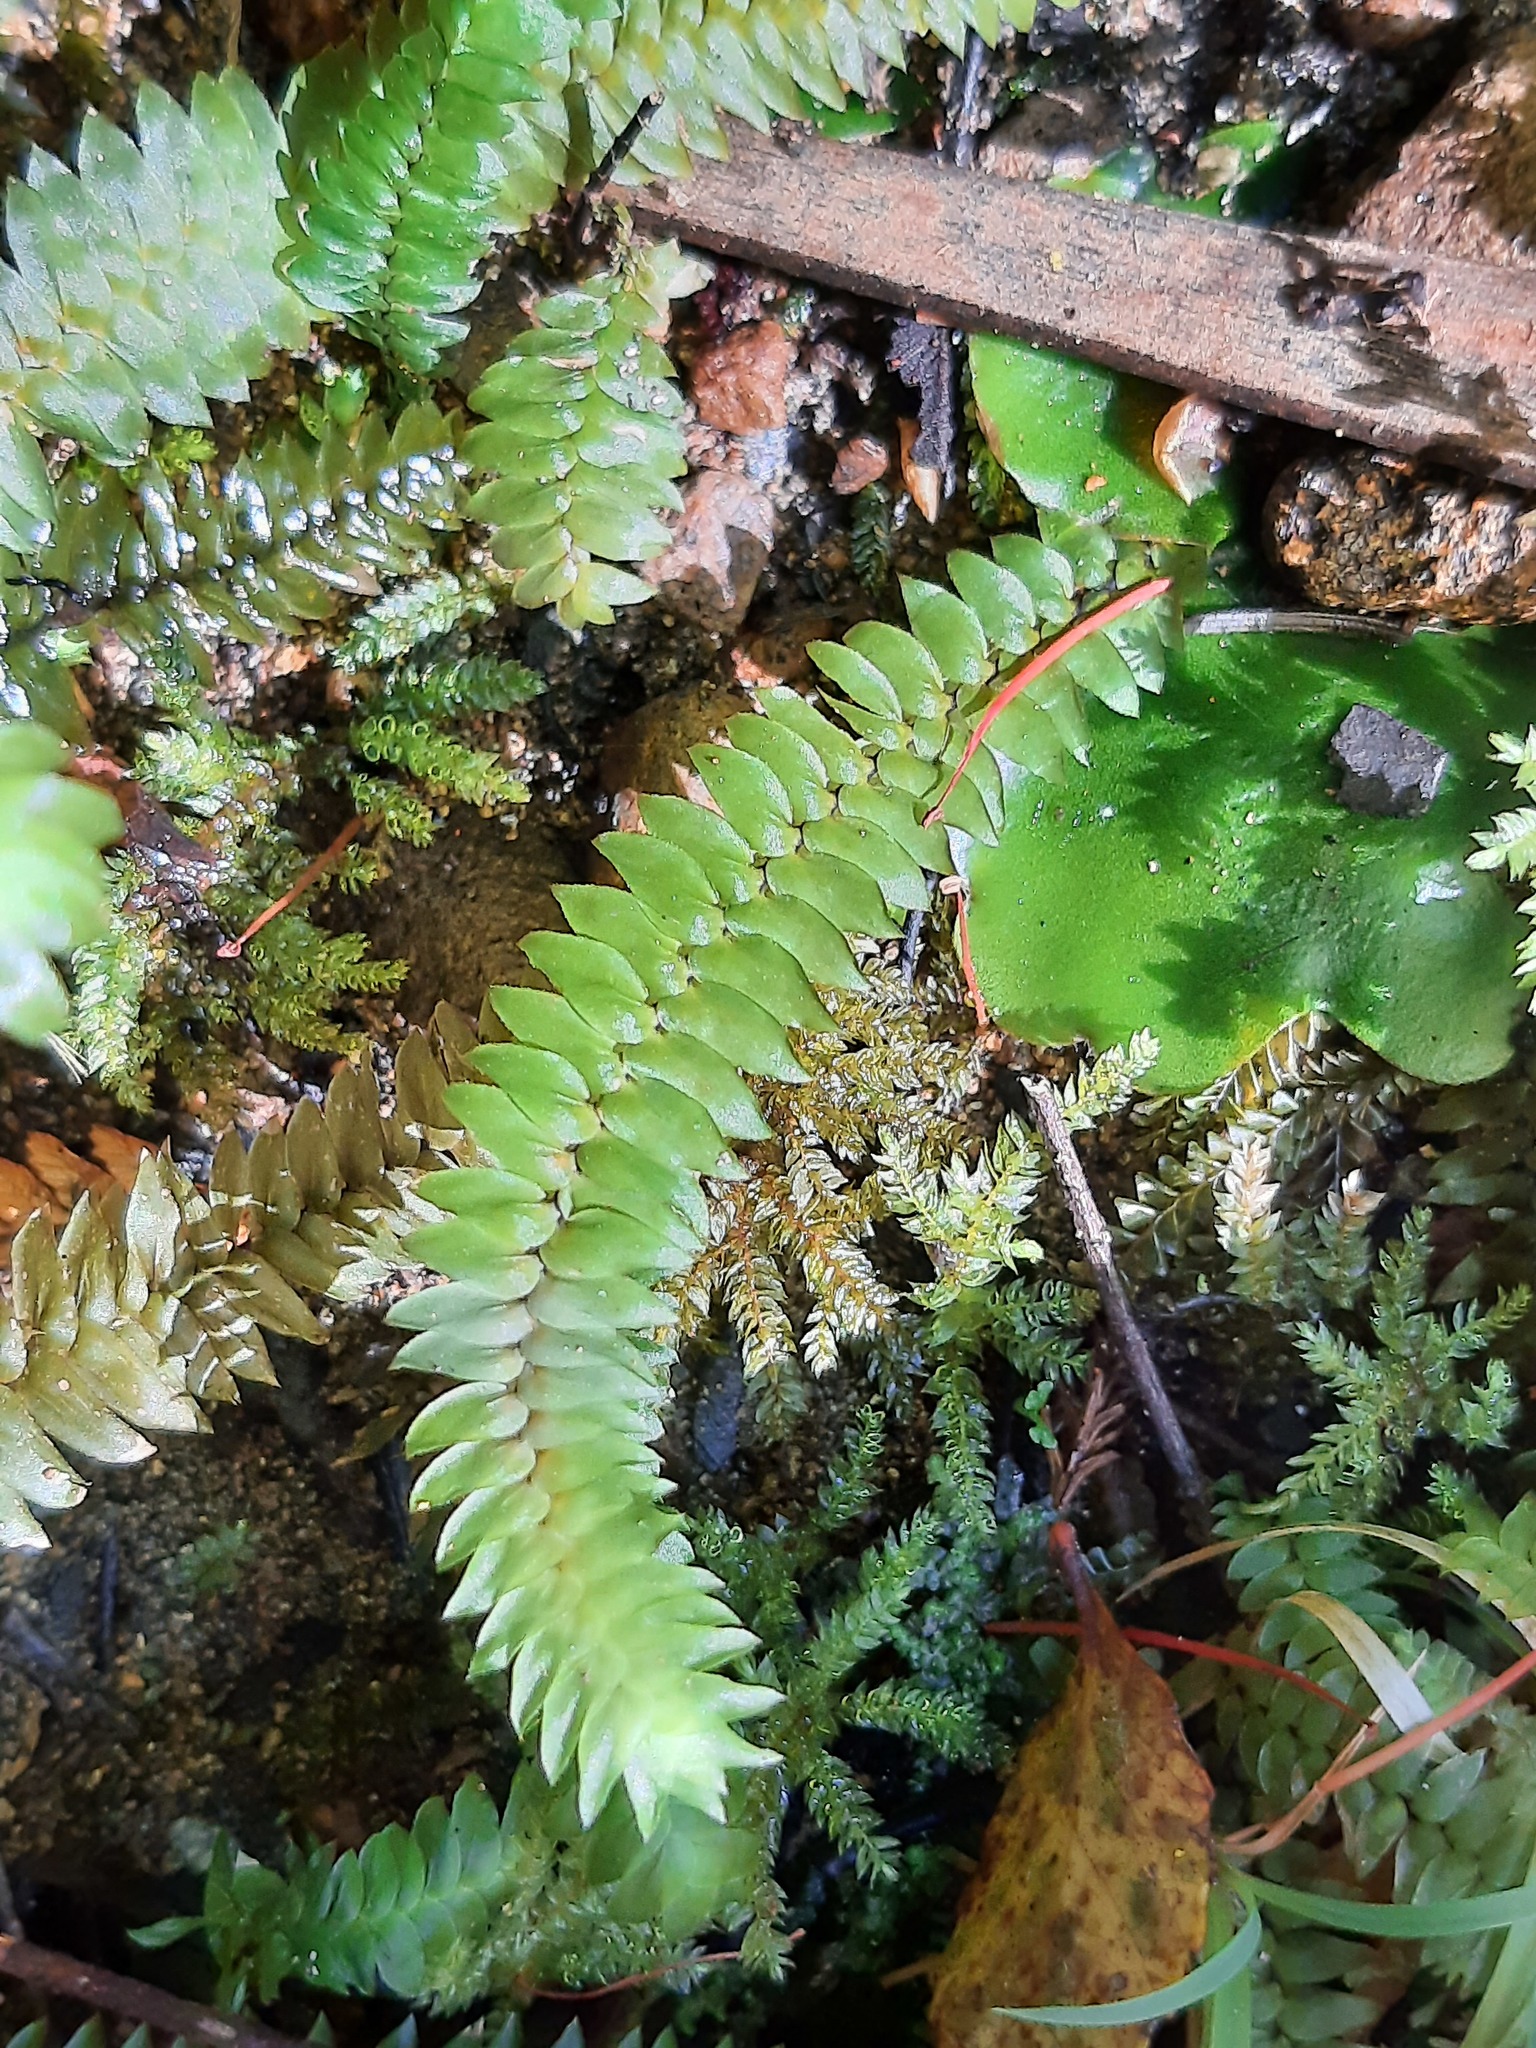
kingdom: Plantae
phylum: Bryophyta
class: Bryopsida
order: Hypopterygiales
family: Hypopterygiaceae
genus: Cyathophorum
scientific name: Cyathophorum bulbosum
